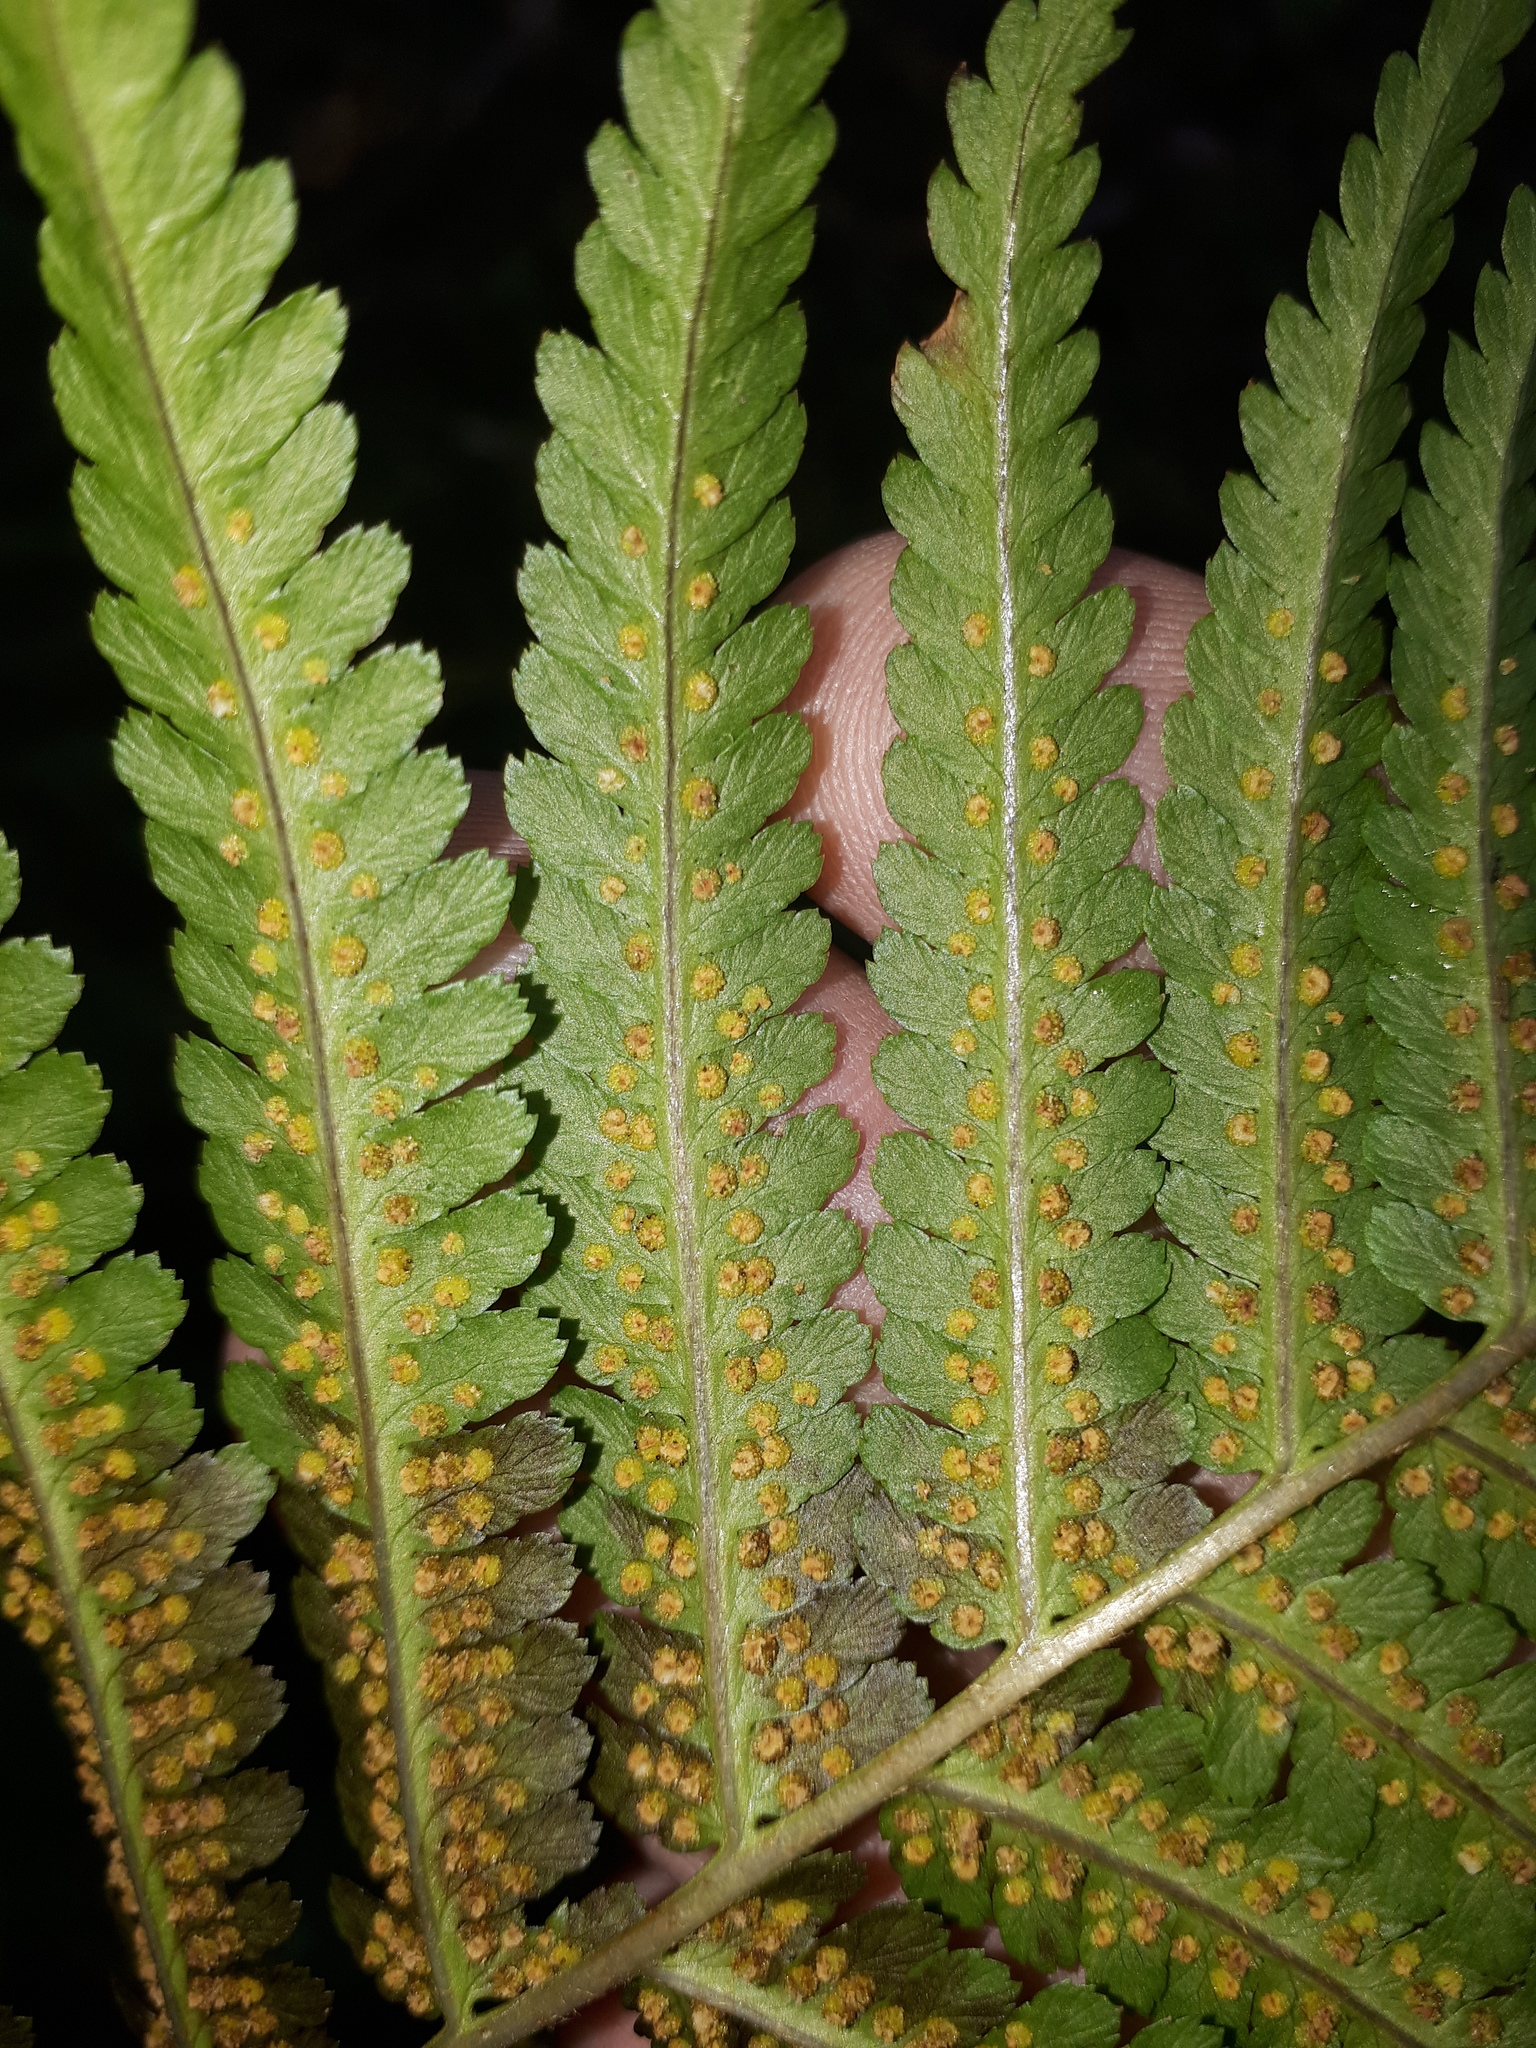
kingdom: Plantae
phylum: Tracheophyta
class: Polypodiopsida
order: Polypodiales
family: Dryopteridaceae
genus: Dryopteris
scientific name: Dryopteris filix-mas
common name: Male fern
